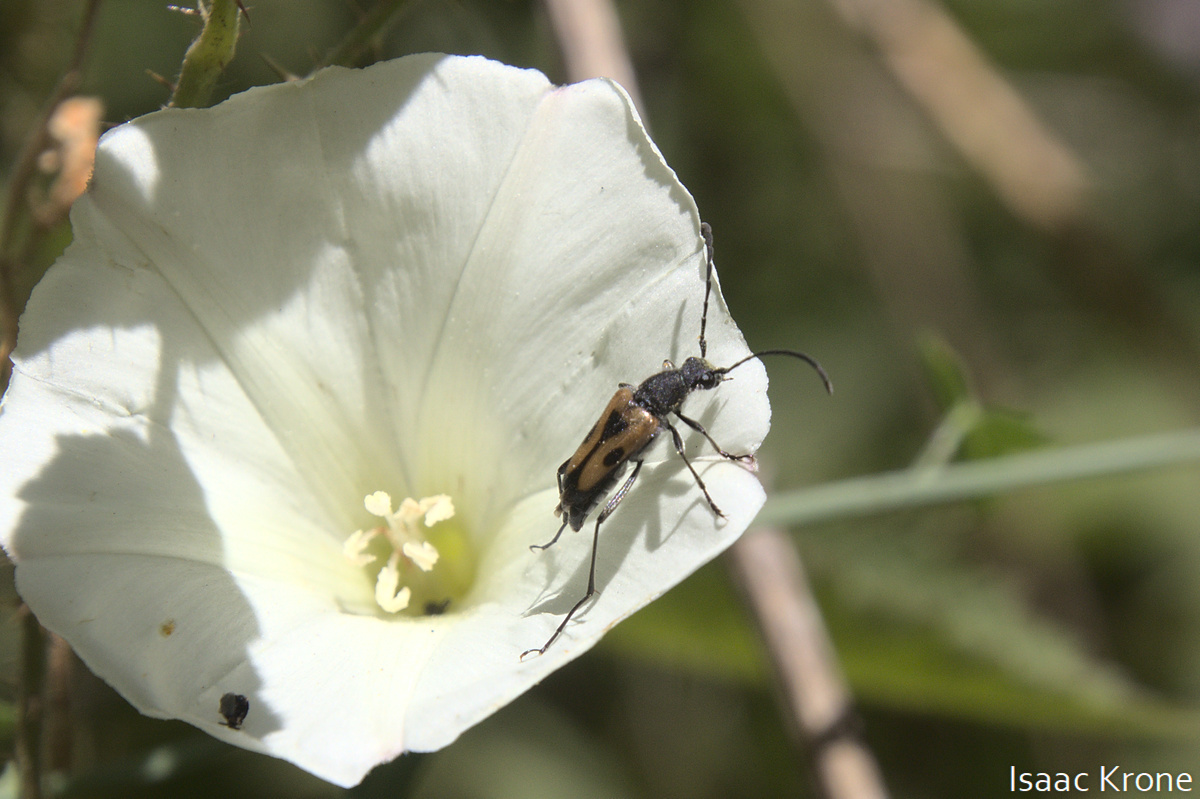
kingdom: Animalia
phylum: Arthropoda
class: Insecta
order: Coleoptera
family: Cerambycidae
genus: Anastrangalia
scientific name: Anastrangalia laetifica
